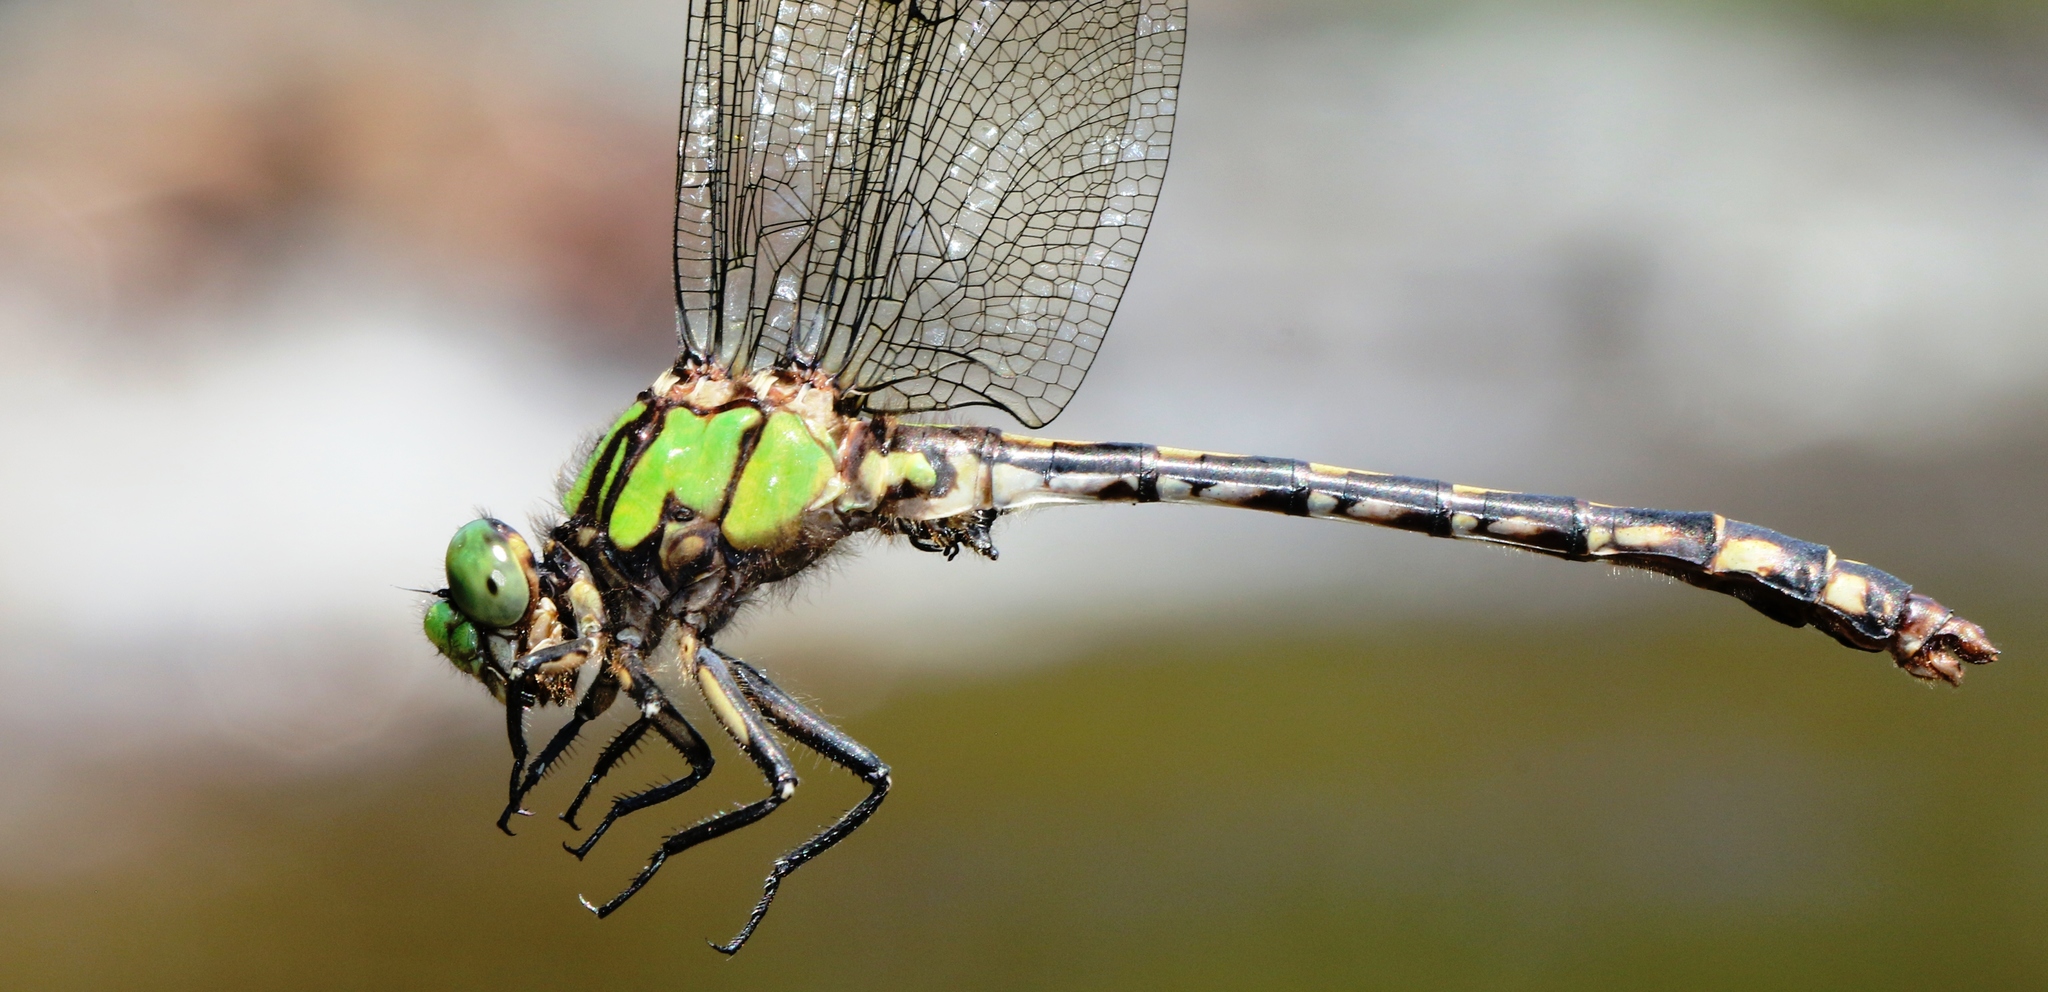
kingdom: Animalia
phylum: Arthropoda
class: Insecta
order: Odonata
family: Gomphidae
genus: Ophiogomphus
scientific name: Ophiogomphus aspersus
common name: Brook snaketail
